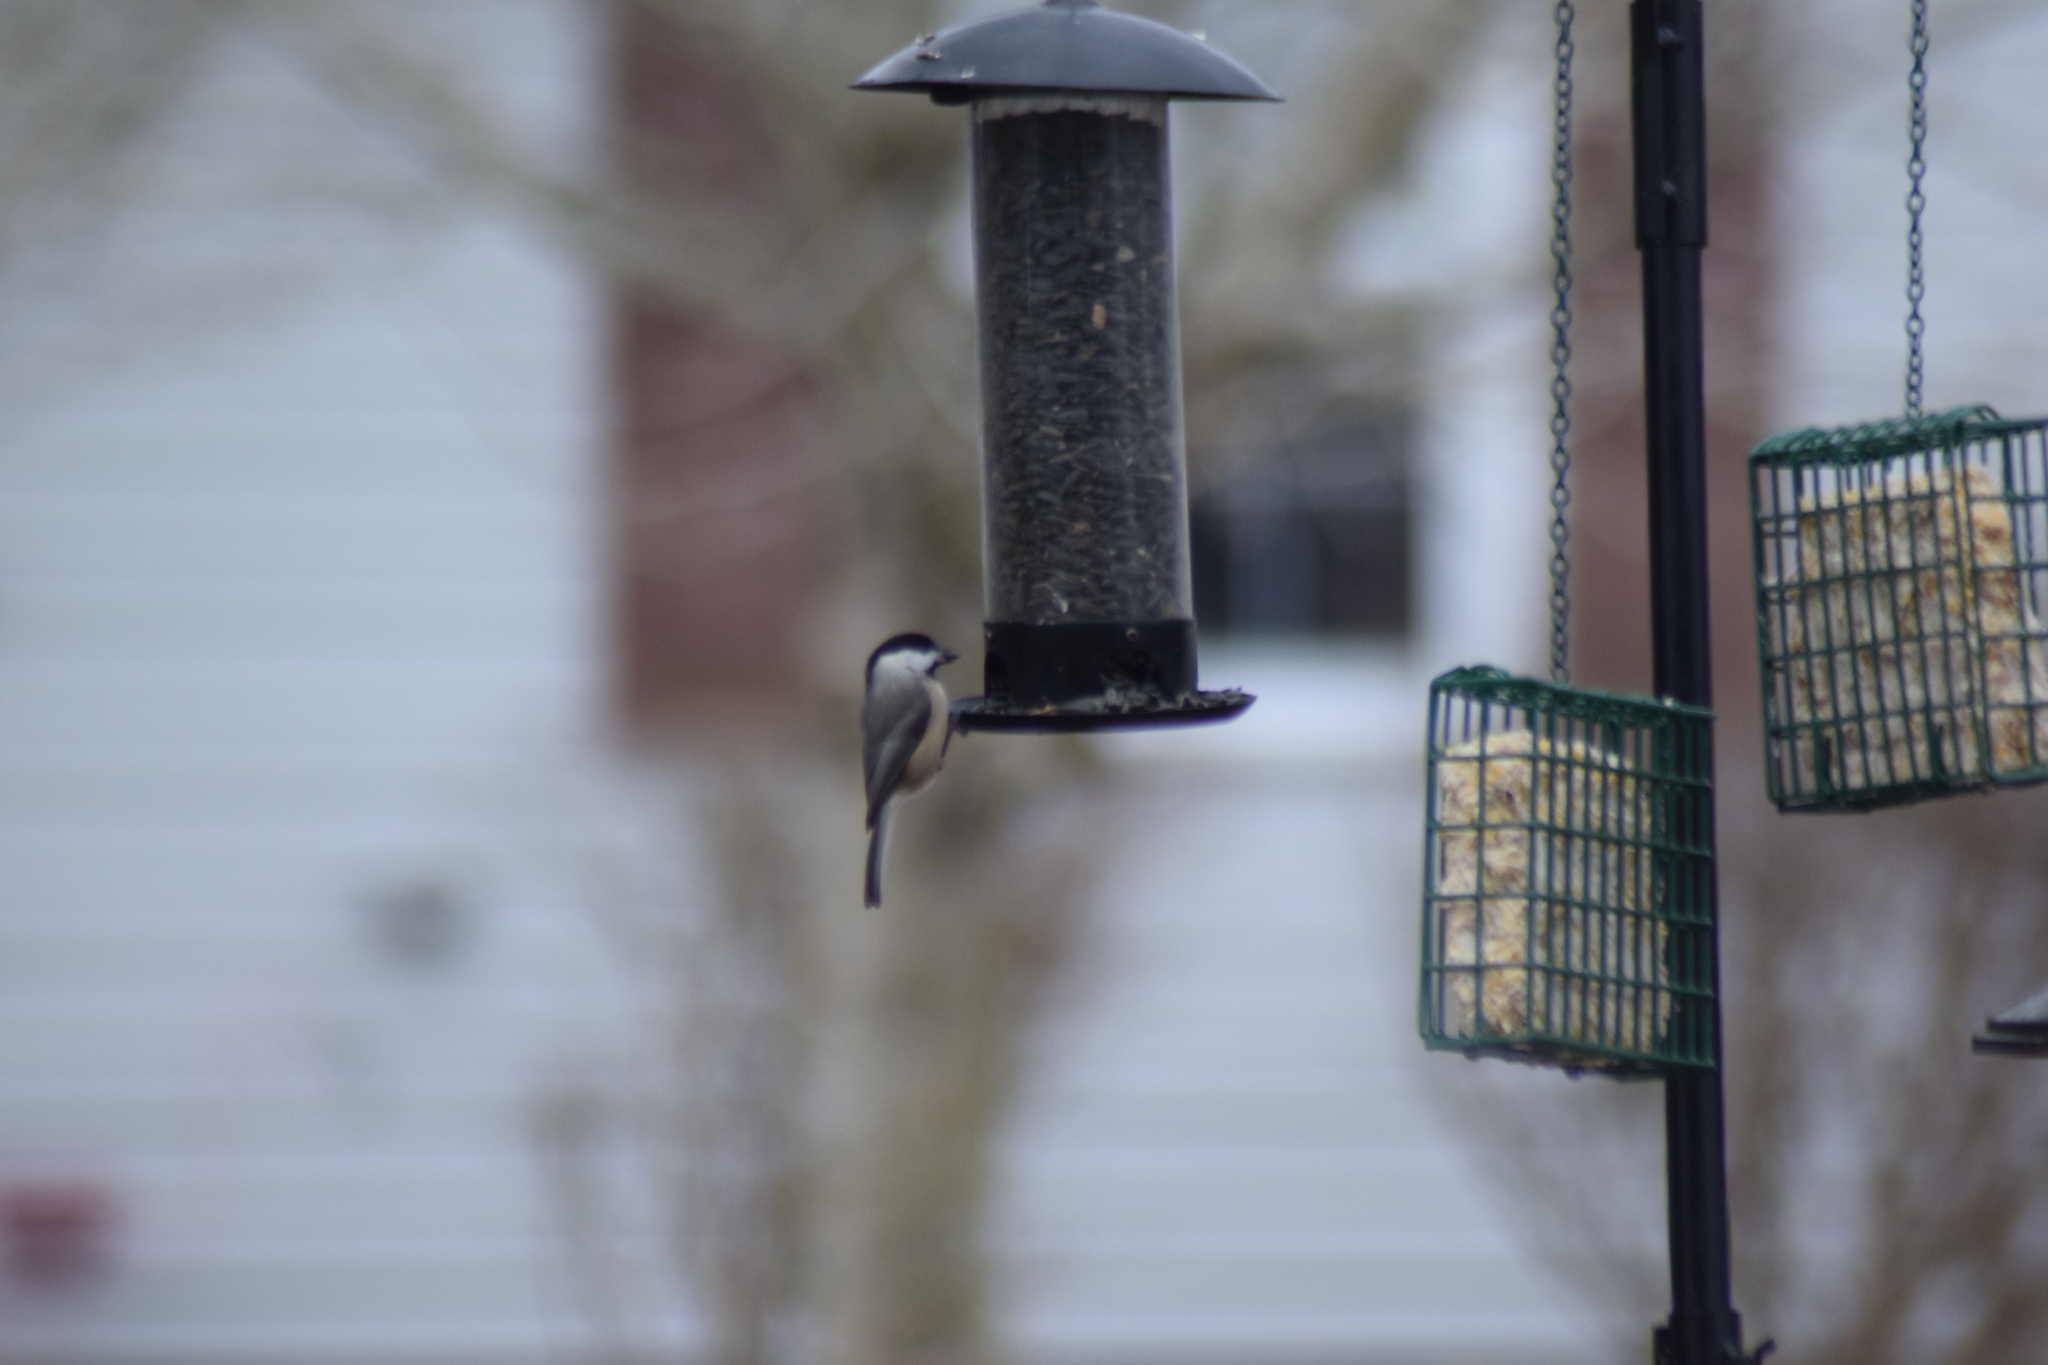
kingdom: Animalia
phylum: Chordata
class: Aves
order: Passeriformes
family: Paridae
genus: Poecile
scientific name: Poecile carolinensis
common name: Carolina chickadee
